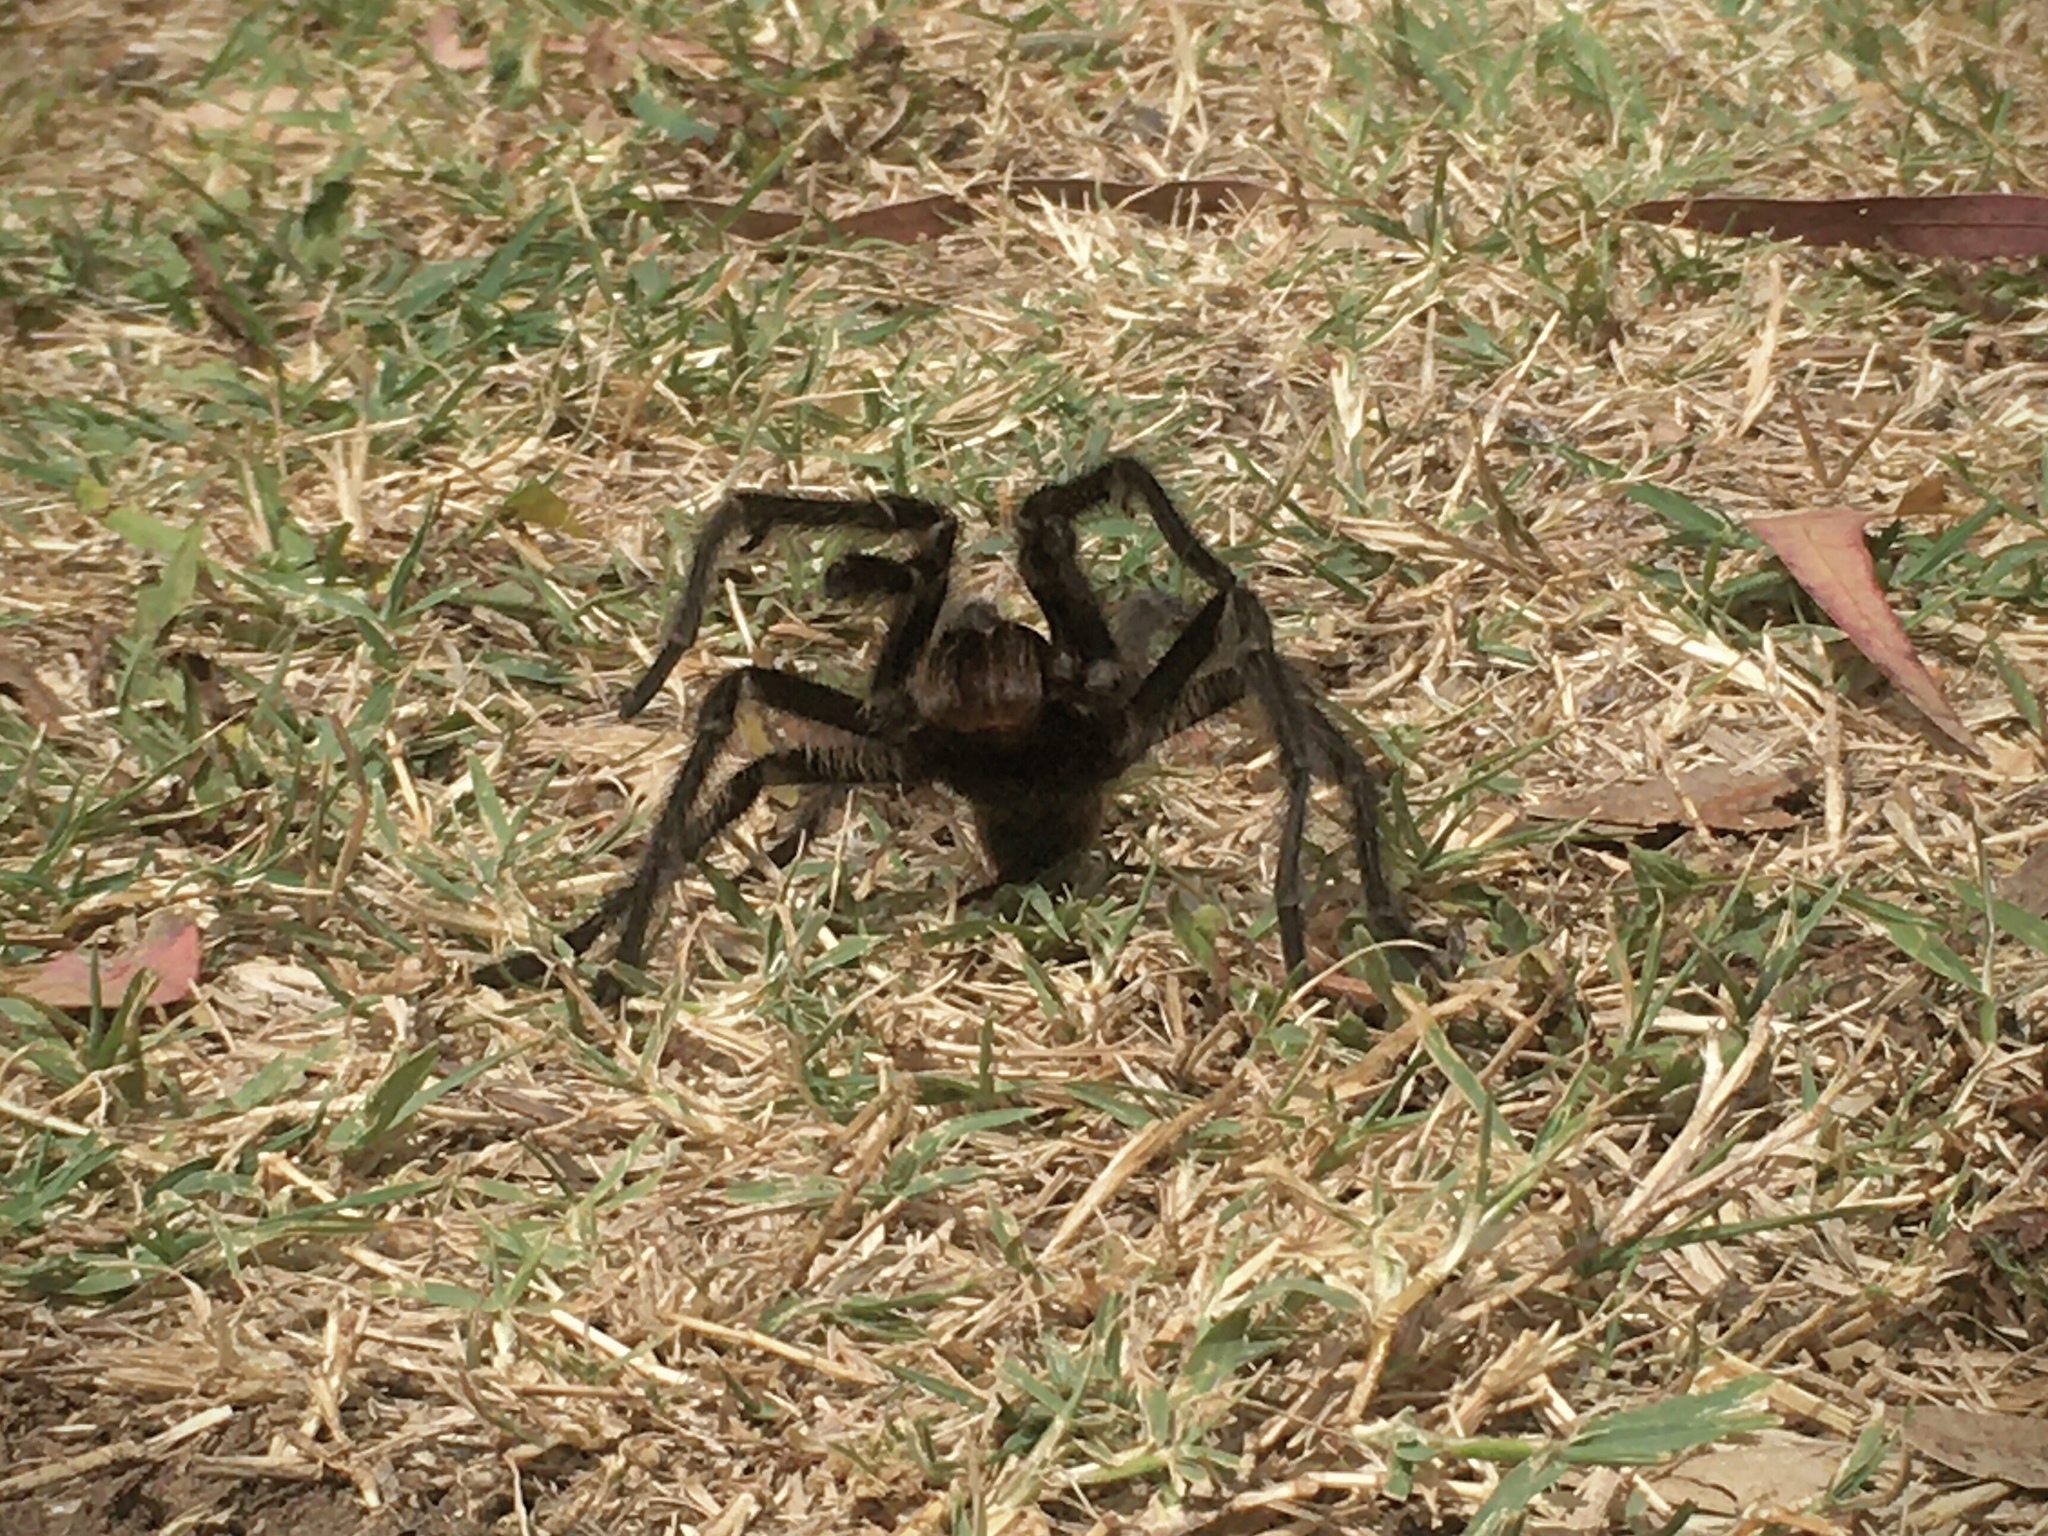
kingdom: Animalia
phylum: Arthropoda
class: Arachnida
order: Araneae
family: Theraphosidae
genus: Grammostola
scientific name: Grammostola doeringi
